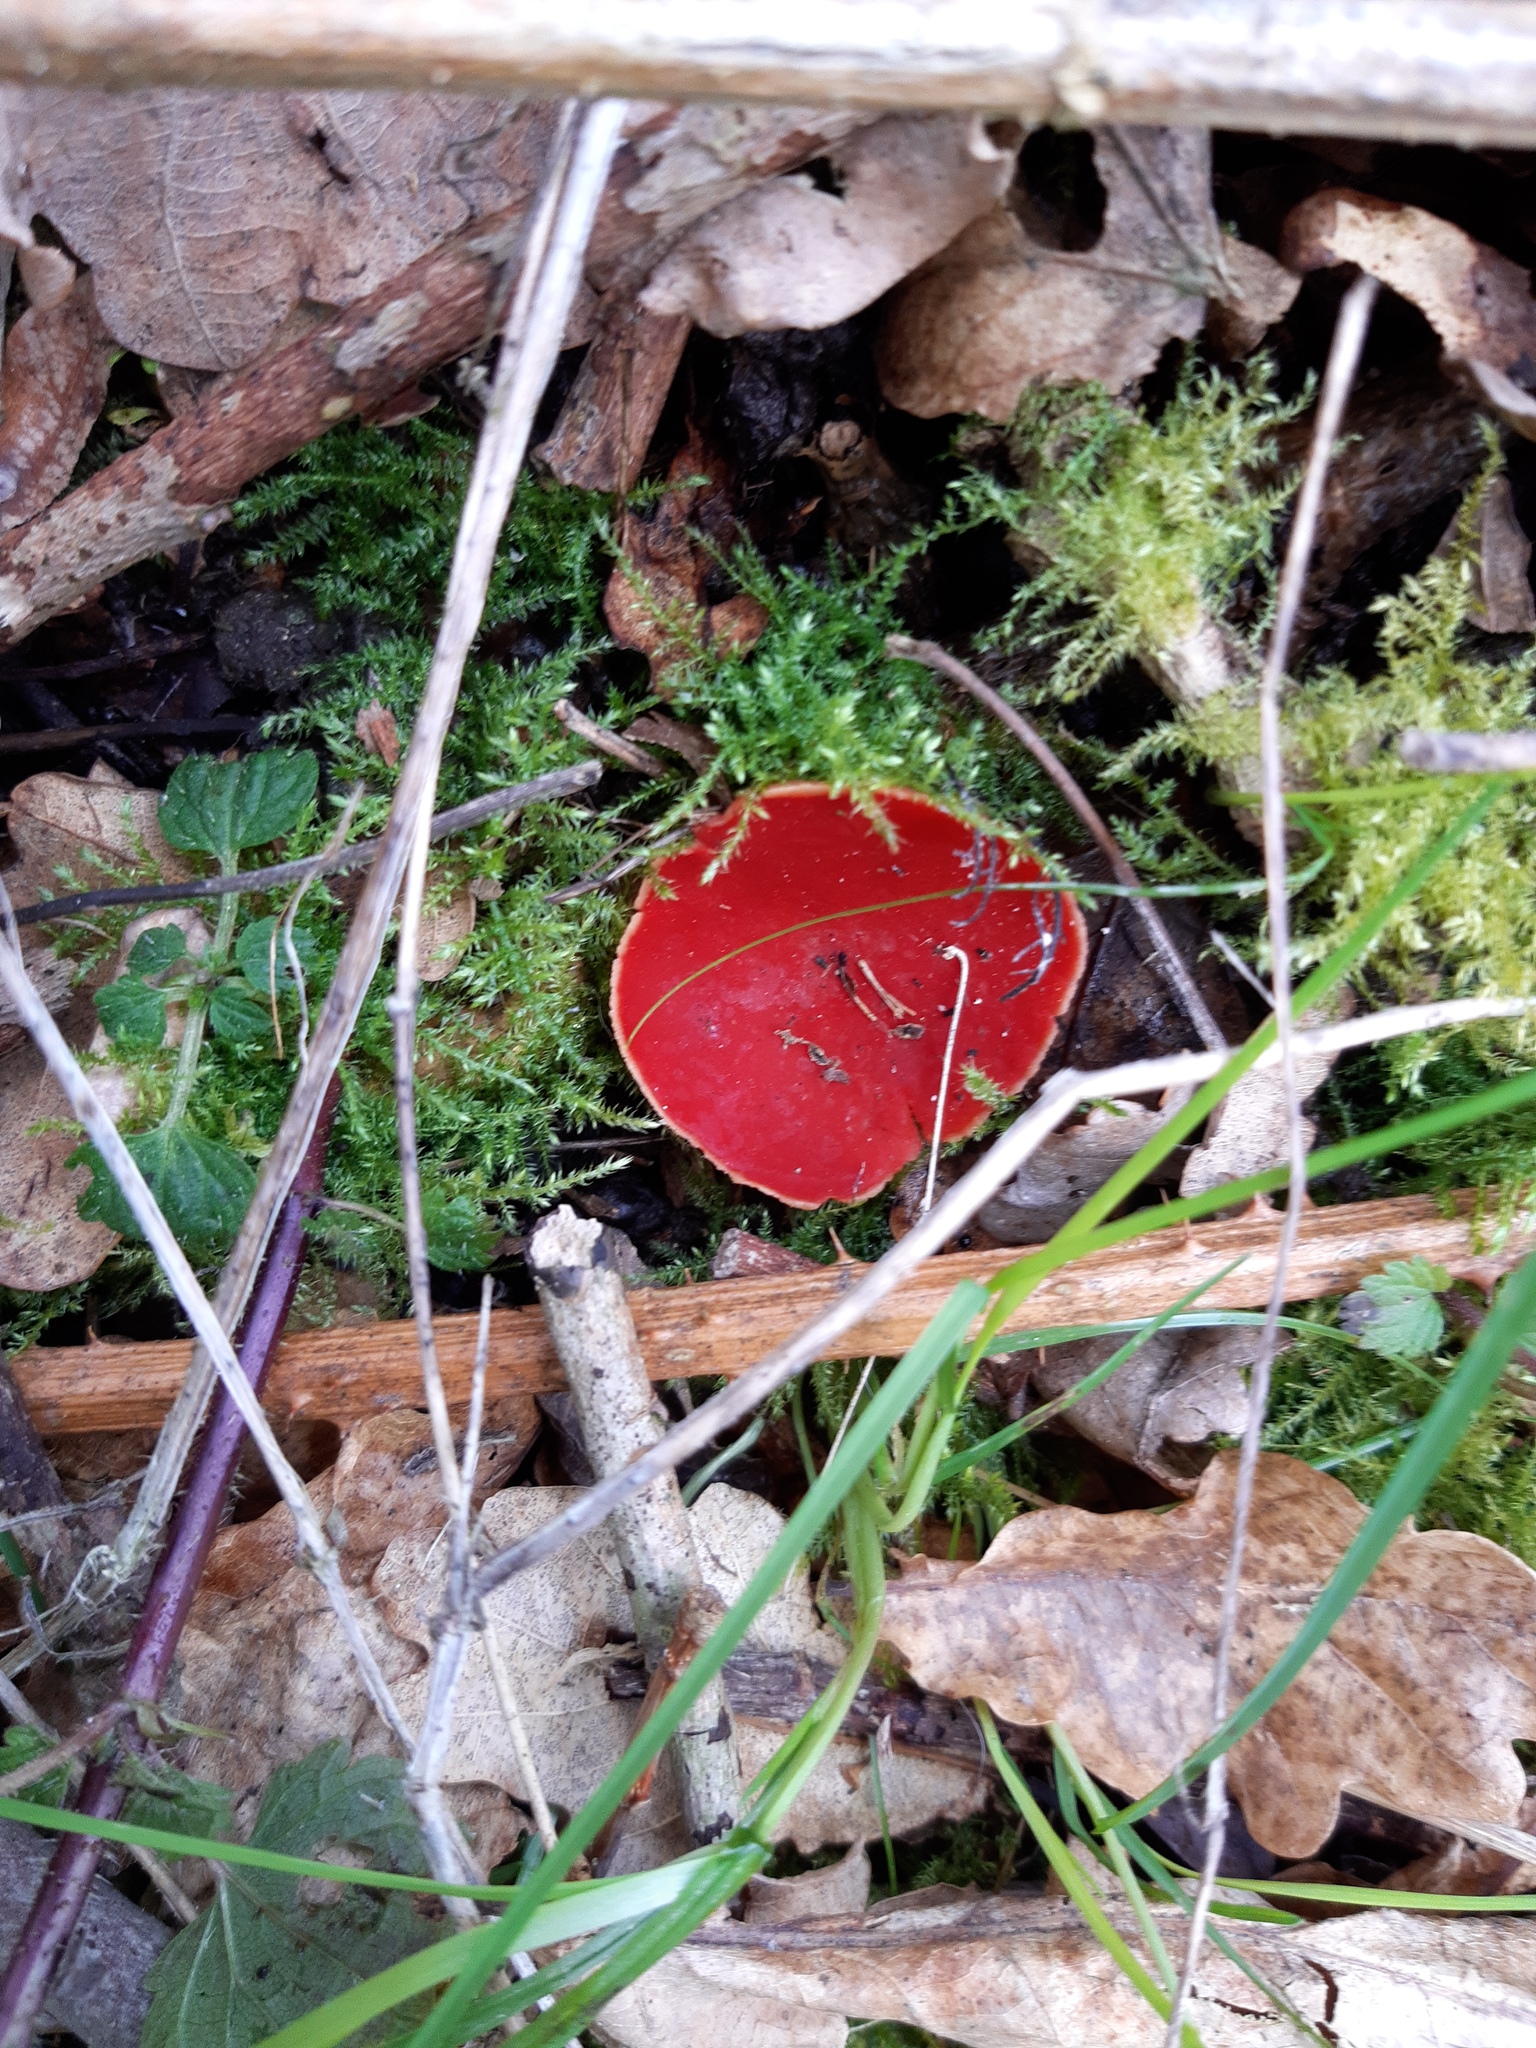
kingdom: Fungi
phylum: Ascomycota
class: Pezizomycetes
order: Pezizales
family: Sarcoscyphaceae
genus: Sarcoscypha
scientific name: Sarcoscypha
